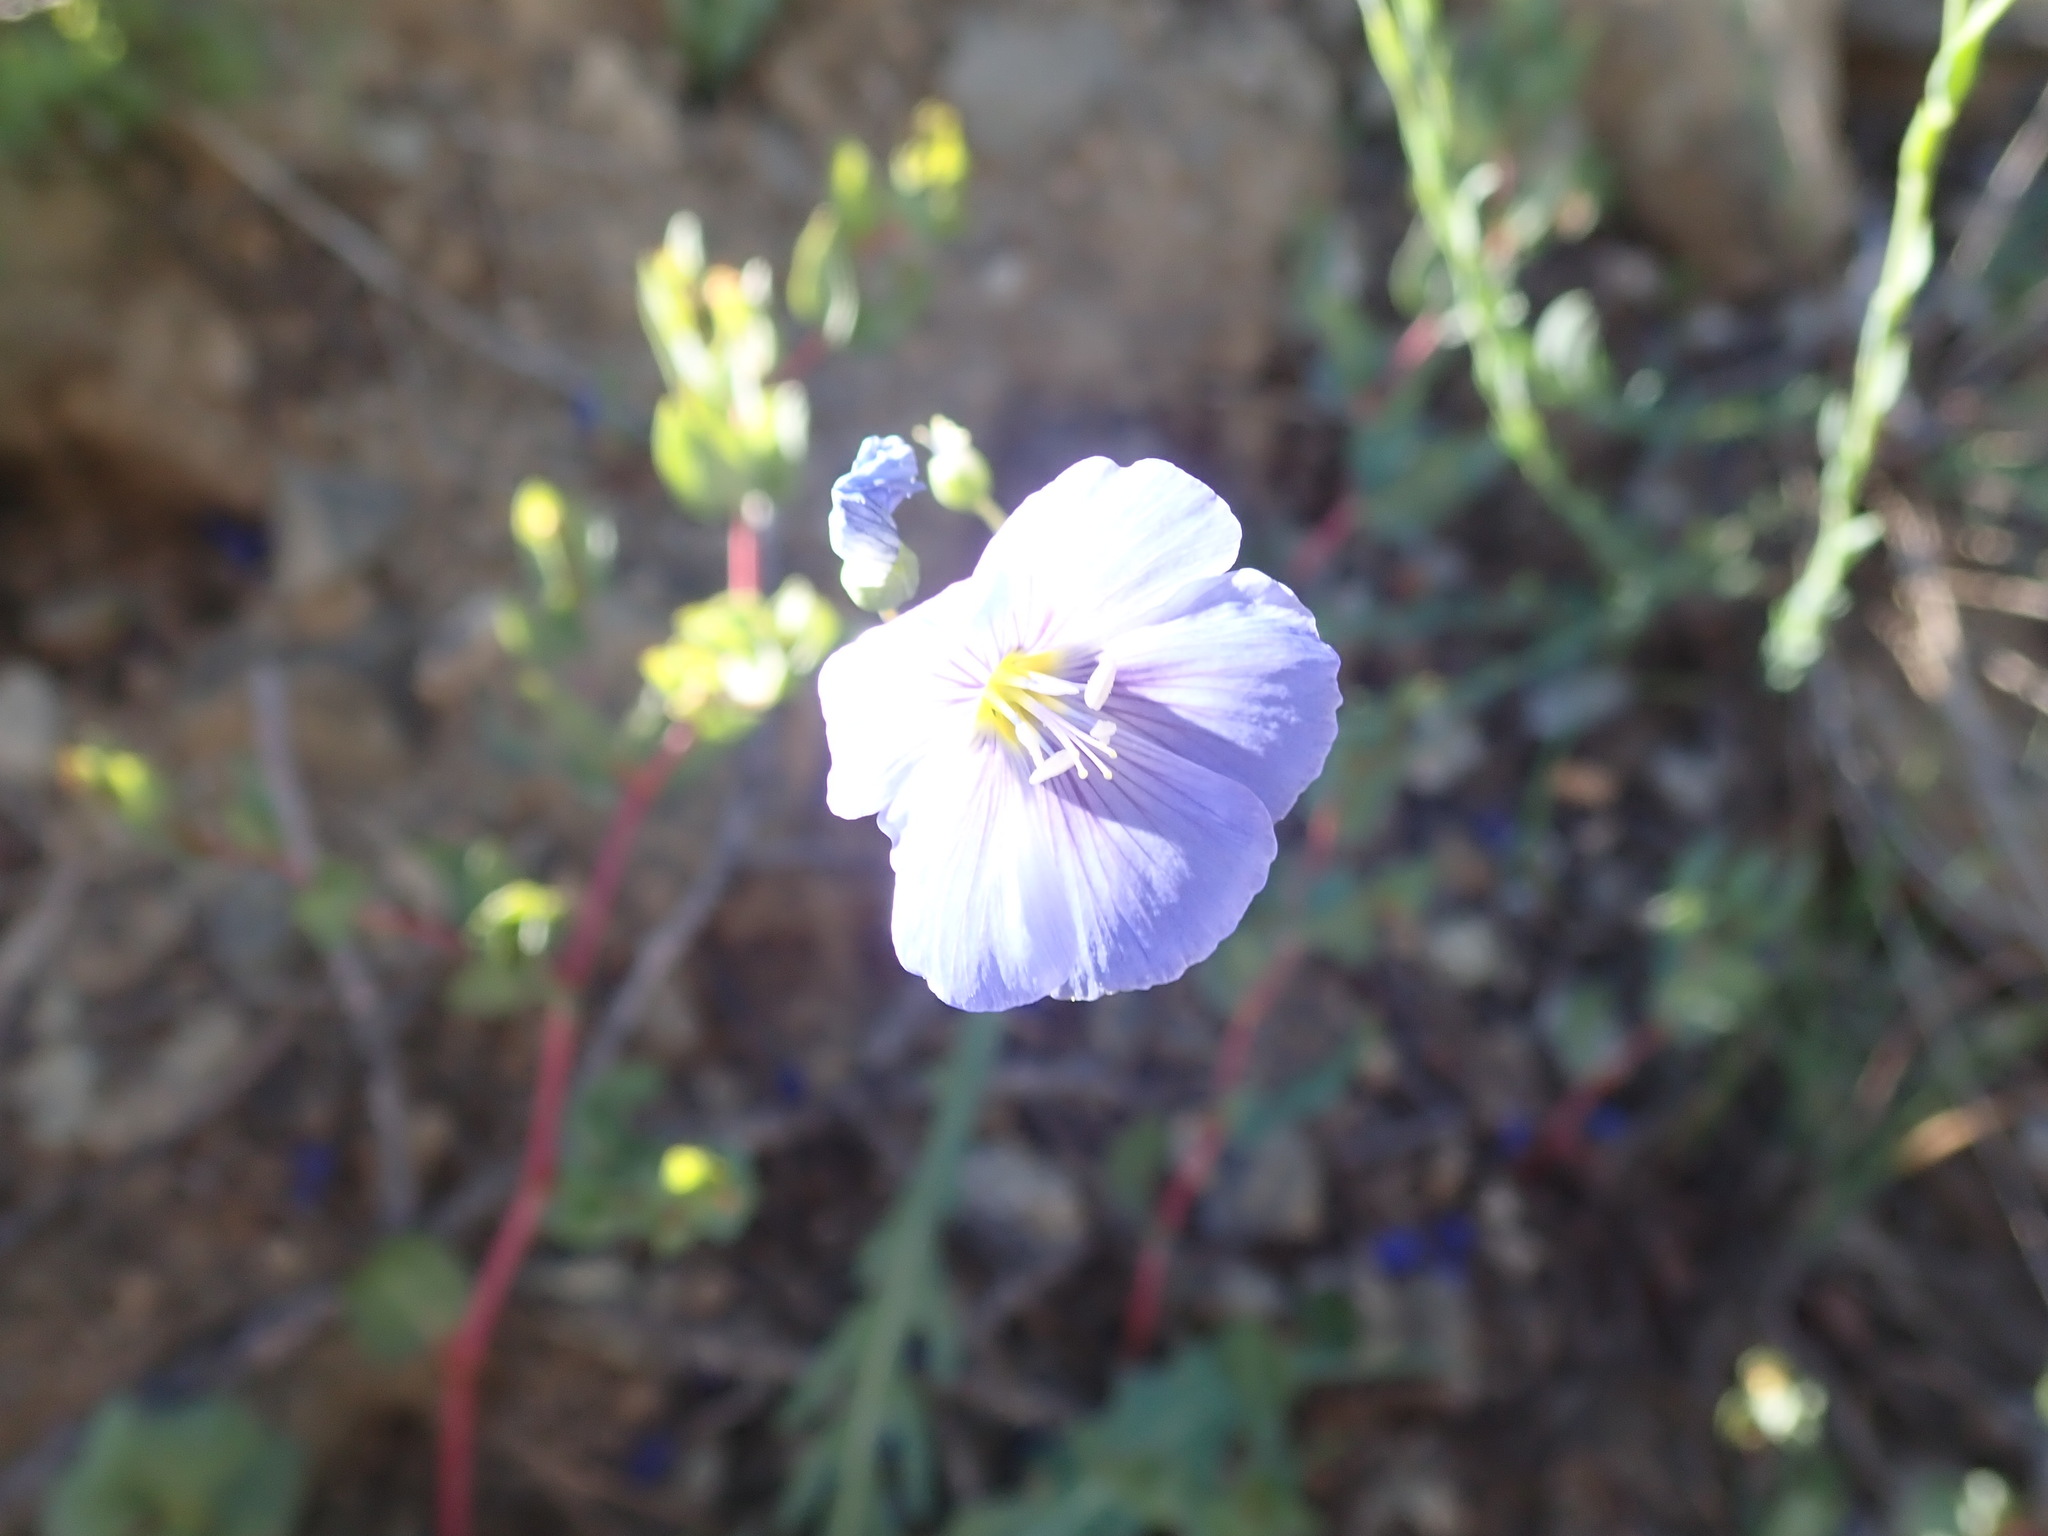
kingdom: Plantae
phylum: Tracheophyta
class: Magnoliopsida
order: Malpighiales
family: Linaceae
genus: Linum
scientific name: Linum lewisii
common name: Prairie flax
